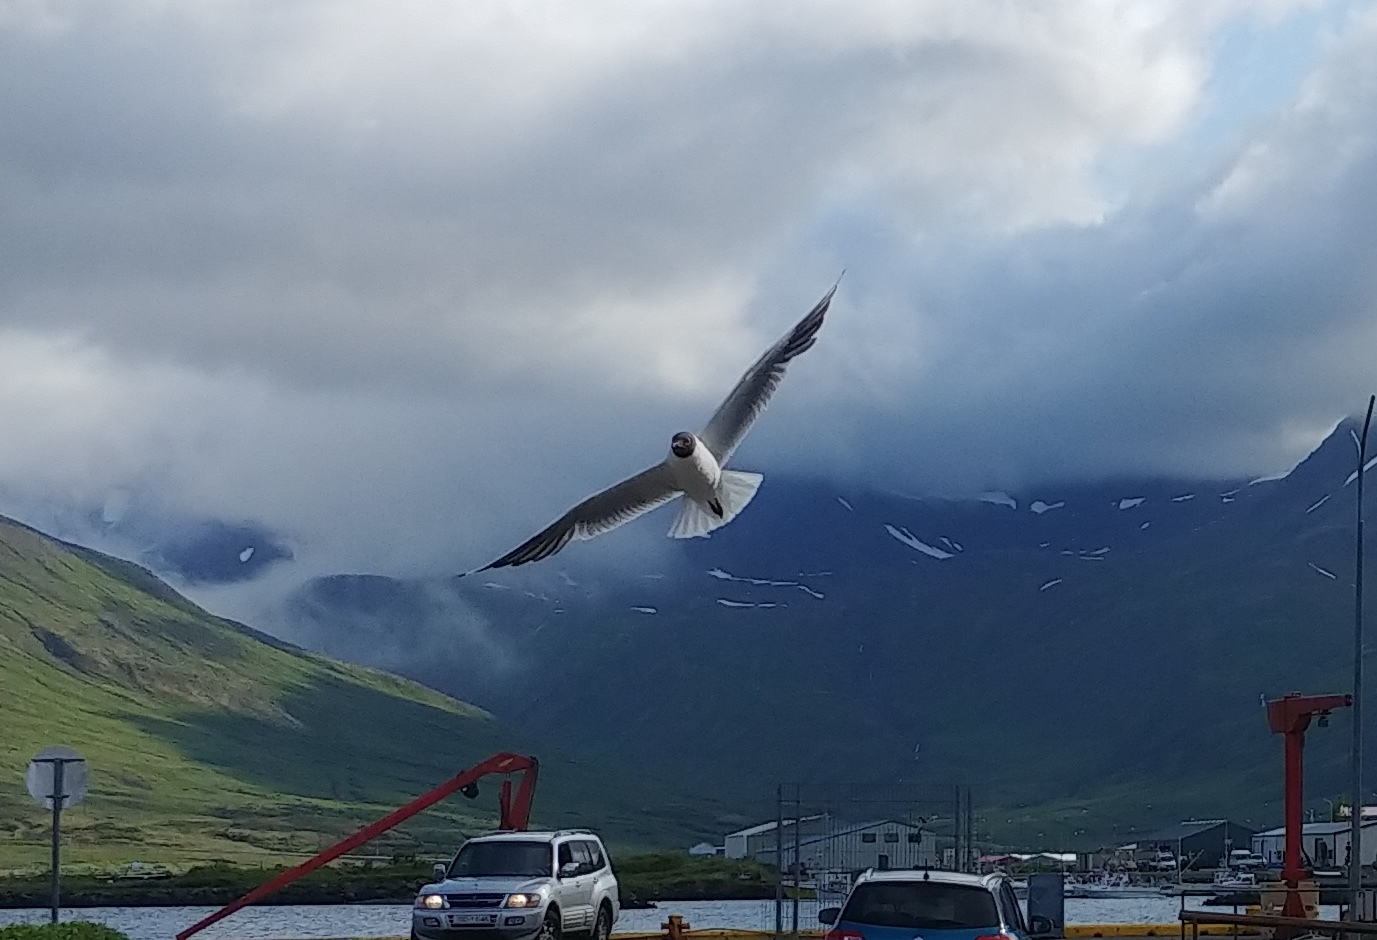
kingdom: Animalia
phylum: Chordata
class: Aves
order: Charadriiformes
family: Laridae
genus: Chroicocephalus
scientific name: Chroicocephalus ridibundus
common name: Black-headed gull
